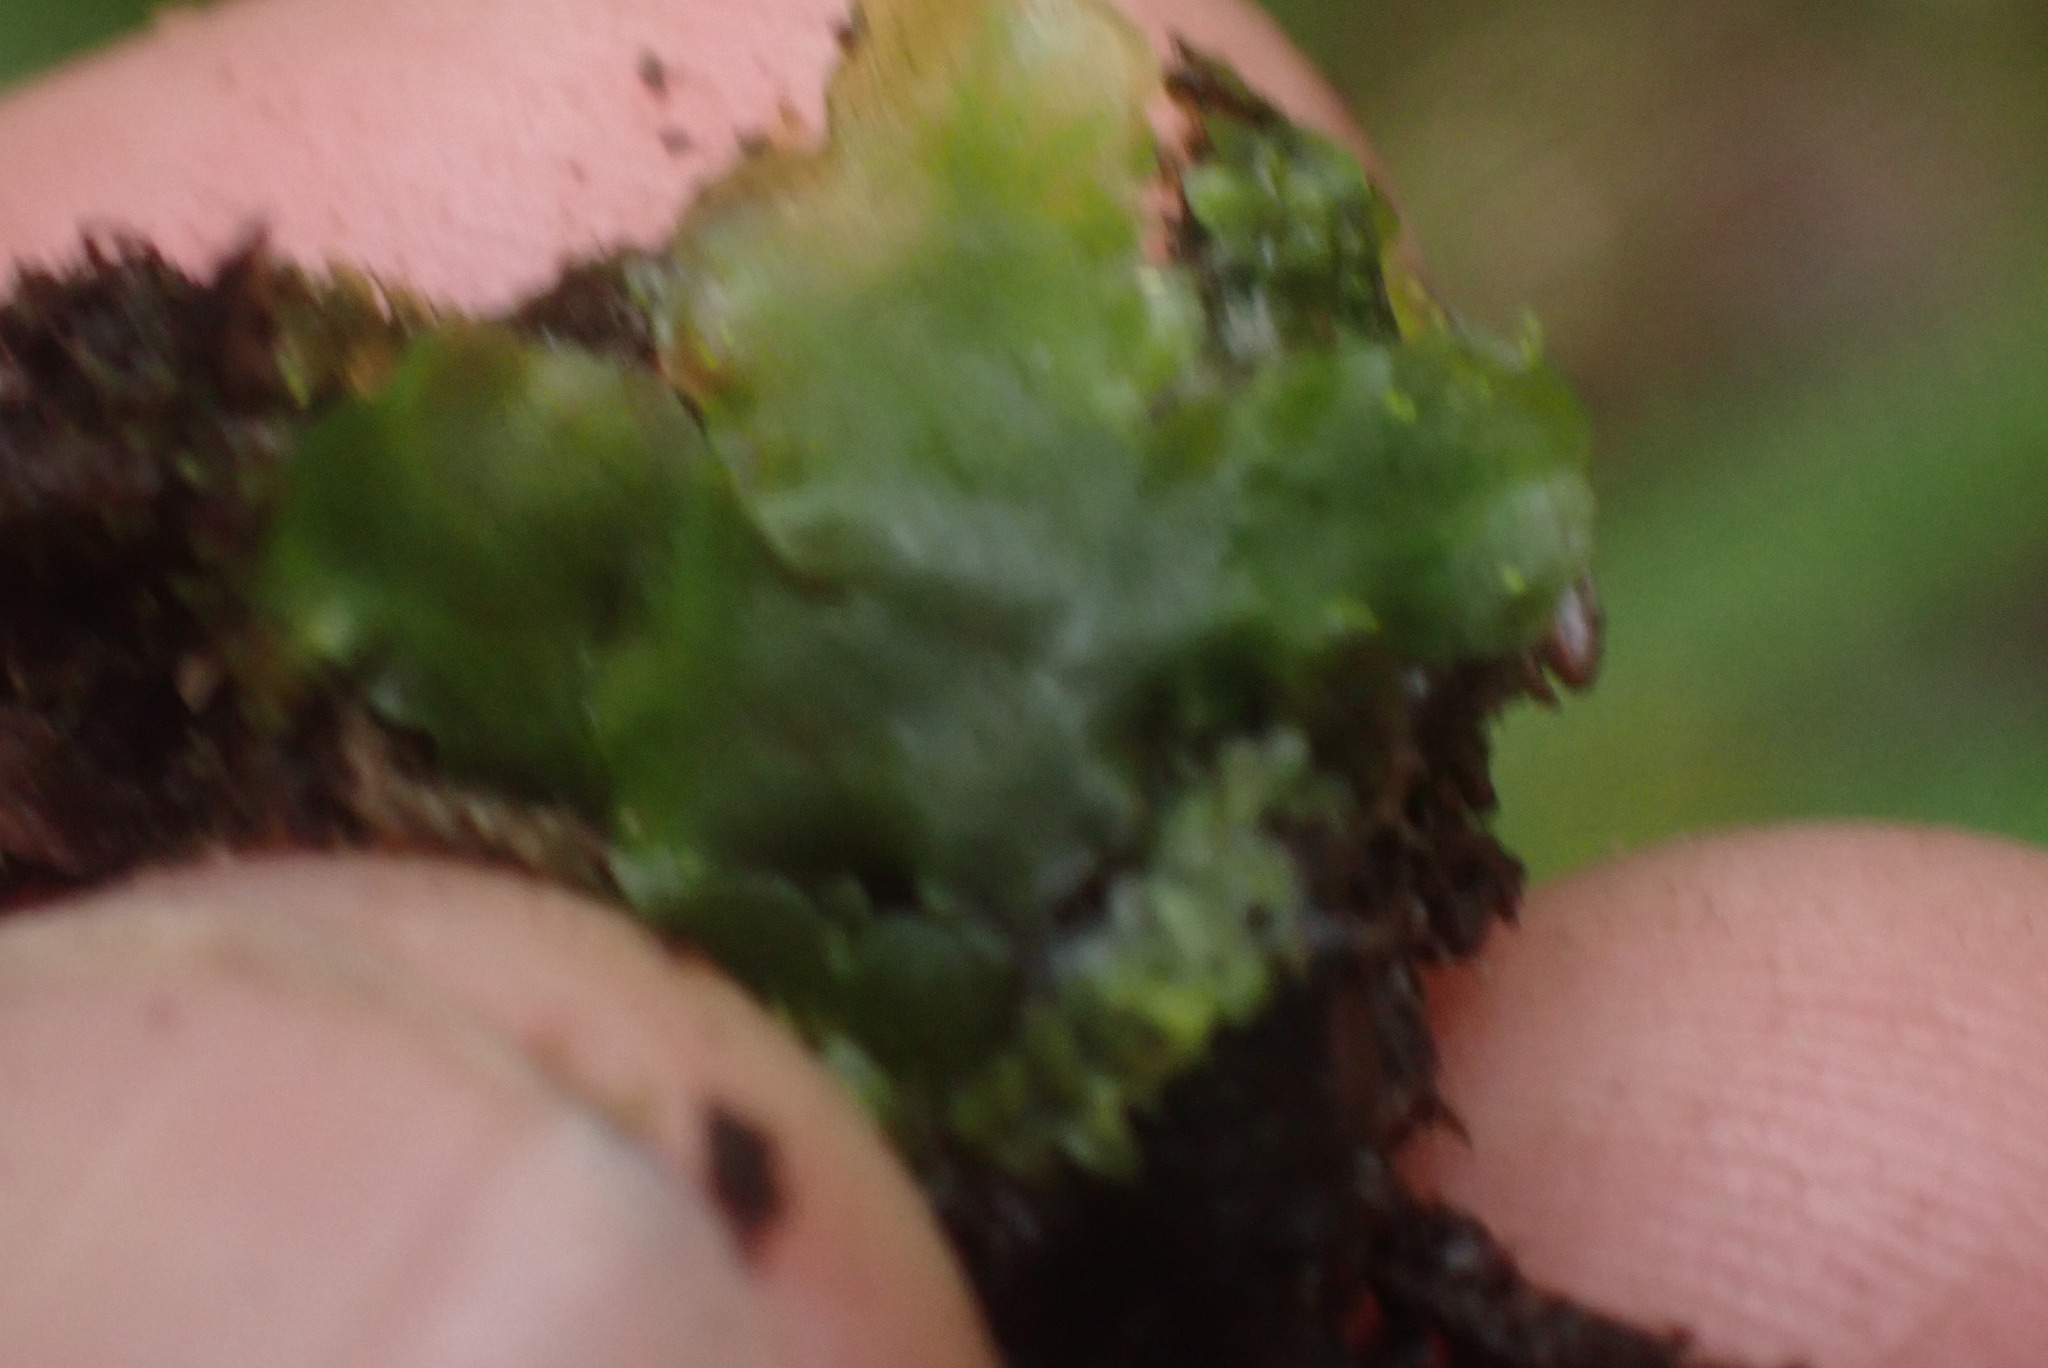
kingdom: Plantae
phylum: Marchantiophyta
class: Jungermanniopsida
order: Pelliales
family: Pelliaceae
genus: Pellia
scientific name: Pellia neesiana
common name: Nees  pellia
